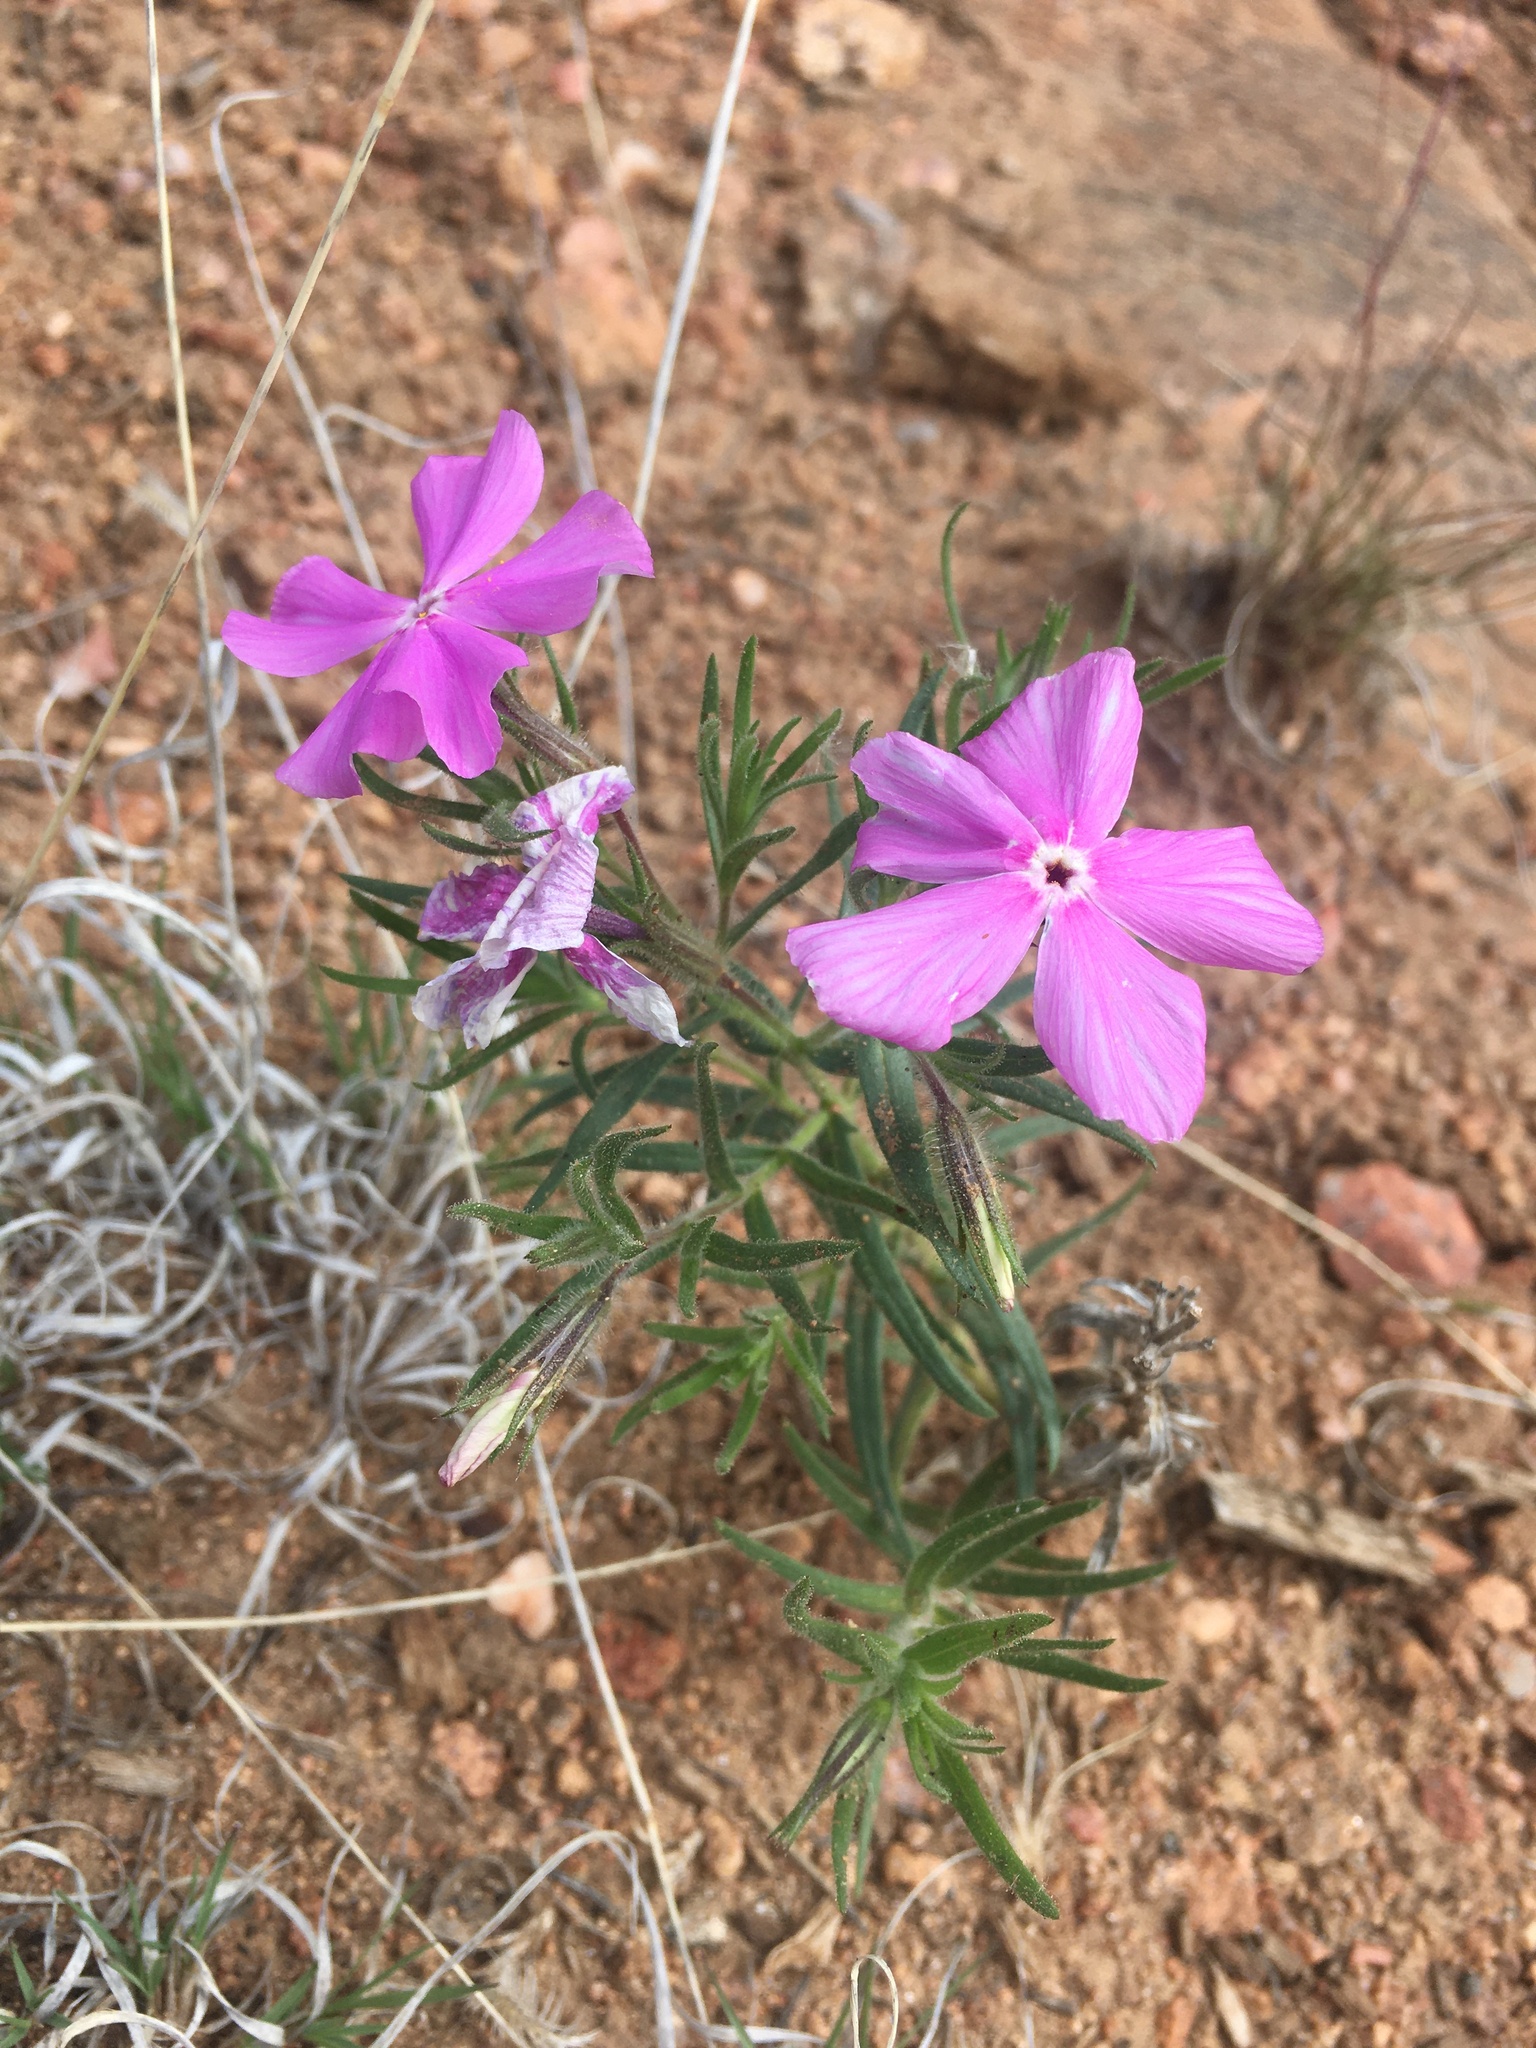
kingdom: Plantae
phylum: Tracheophyta
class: Magnoliopsida
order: Ericales
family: Polemoniaceae
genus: Phlox
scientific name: Phlox nana
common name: Santa fe phlox
